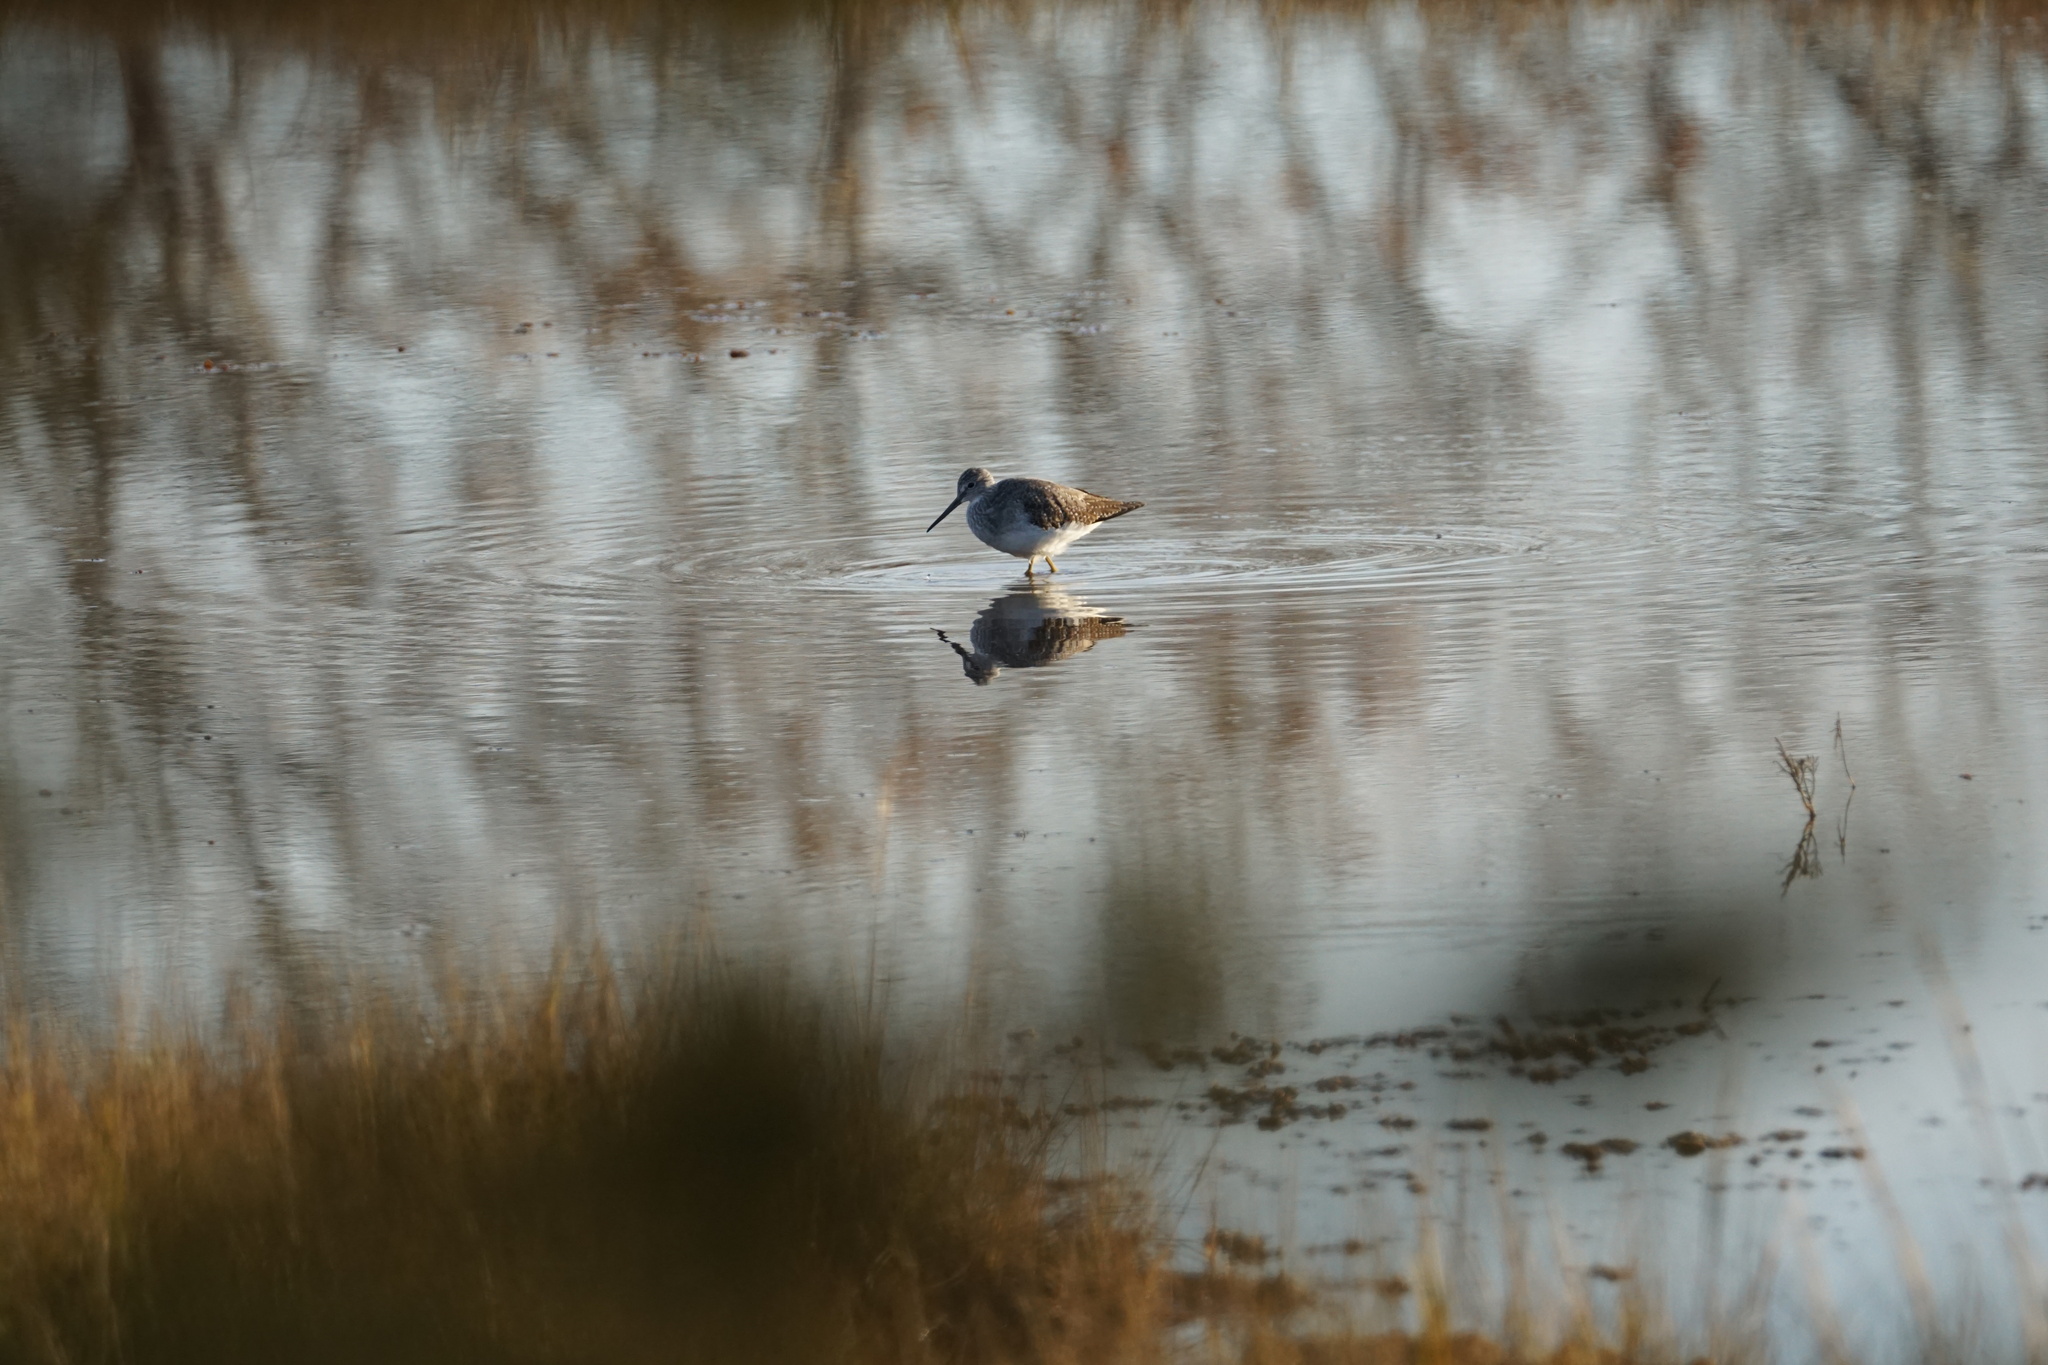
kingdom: Animalia
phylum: Chordata
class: Aves
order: Charadriiformes
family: Scolopacidae
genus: Tringa
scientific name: Tringa melanoleuca
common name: Greater yellowlegs
